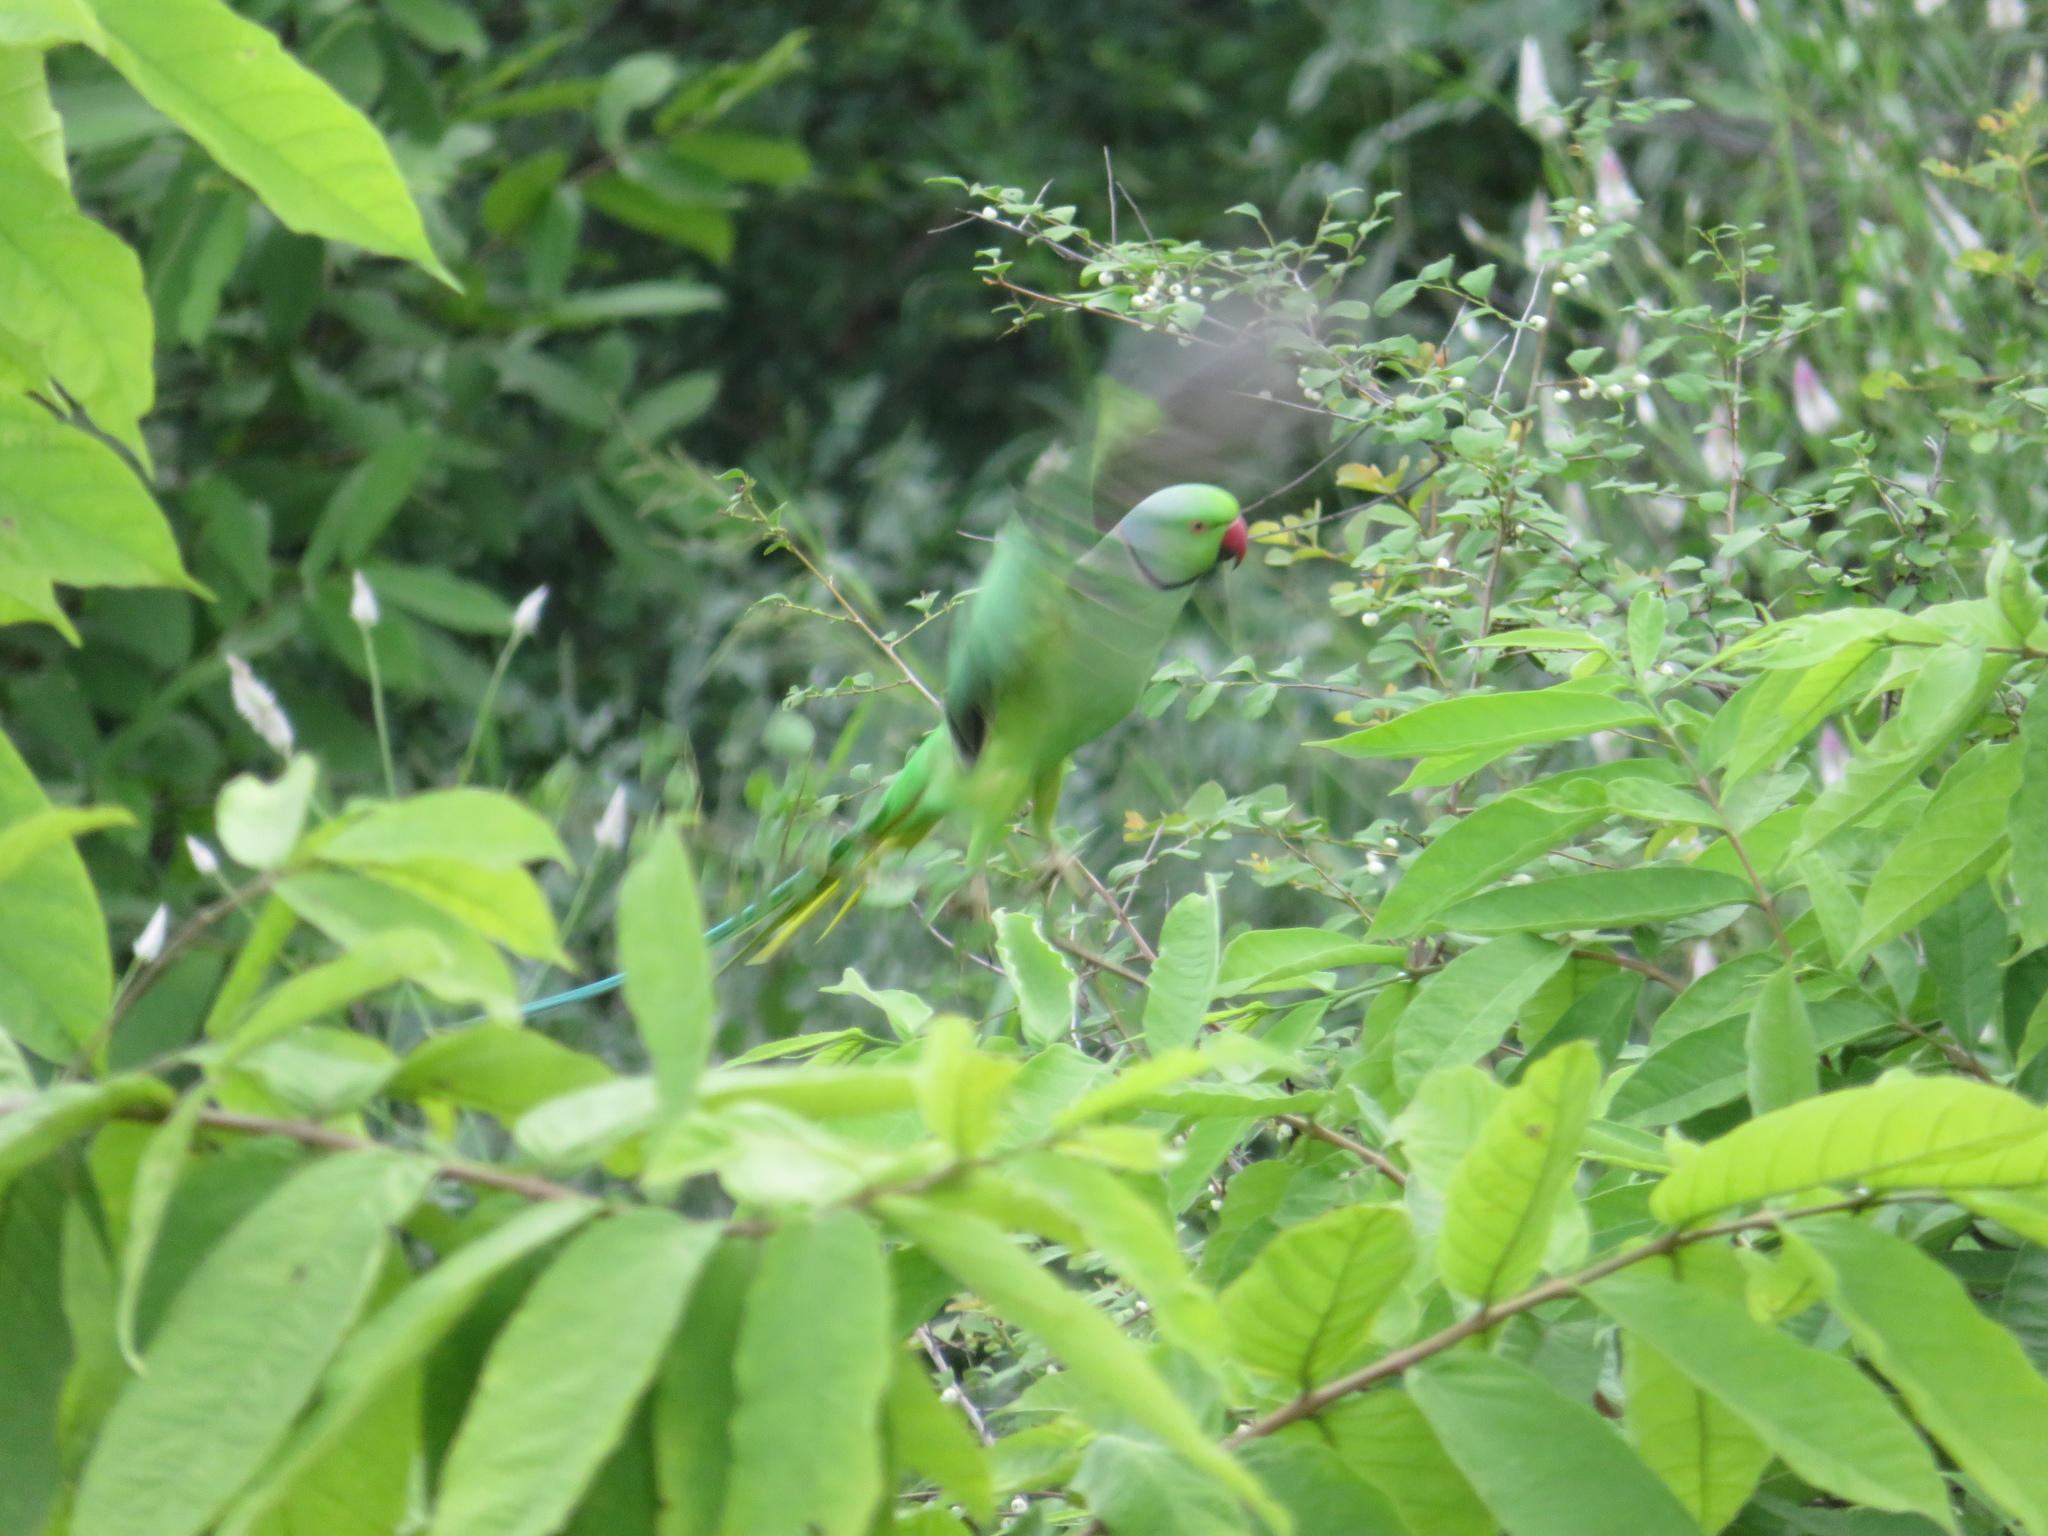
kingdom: Animalia
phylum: Chordata
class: Aves
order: Psittaciformes
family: Psittacidae
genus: Psittacula
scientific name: Psittacula krameri
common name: Rose-ringed parakeet
